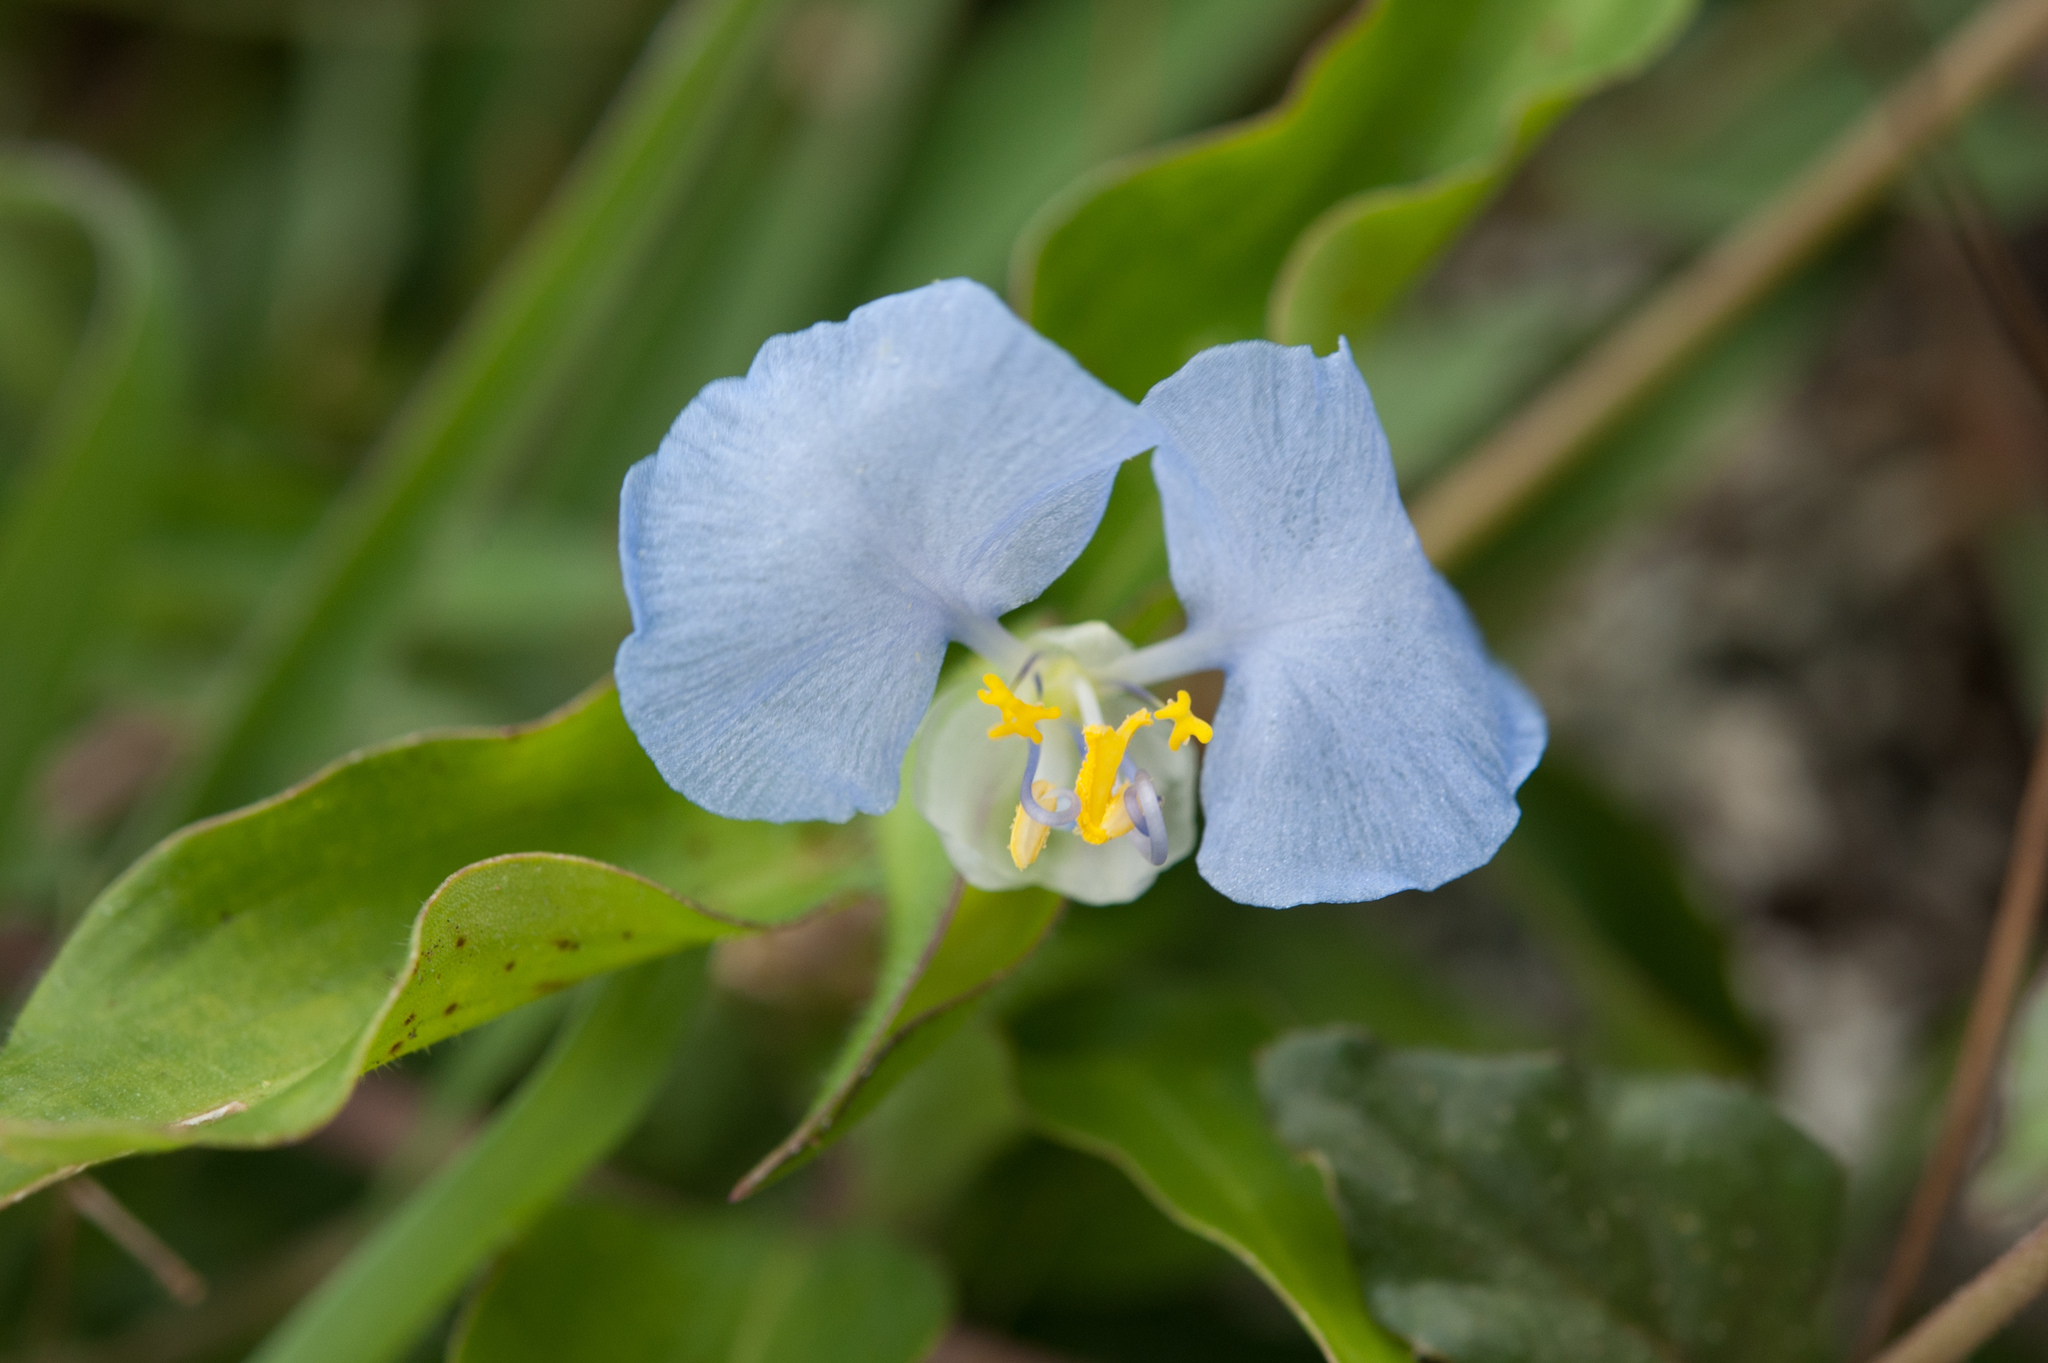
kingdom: Plantae
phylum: Tracheophyta
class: Liliopsida
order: Commelinales
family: Commelinaceae
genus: Commelina
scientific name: Commelina auriculata
